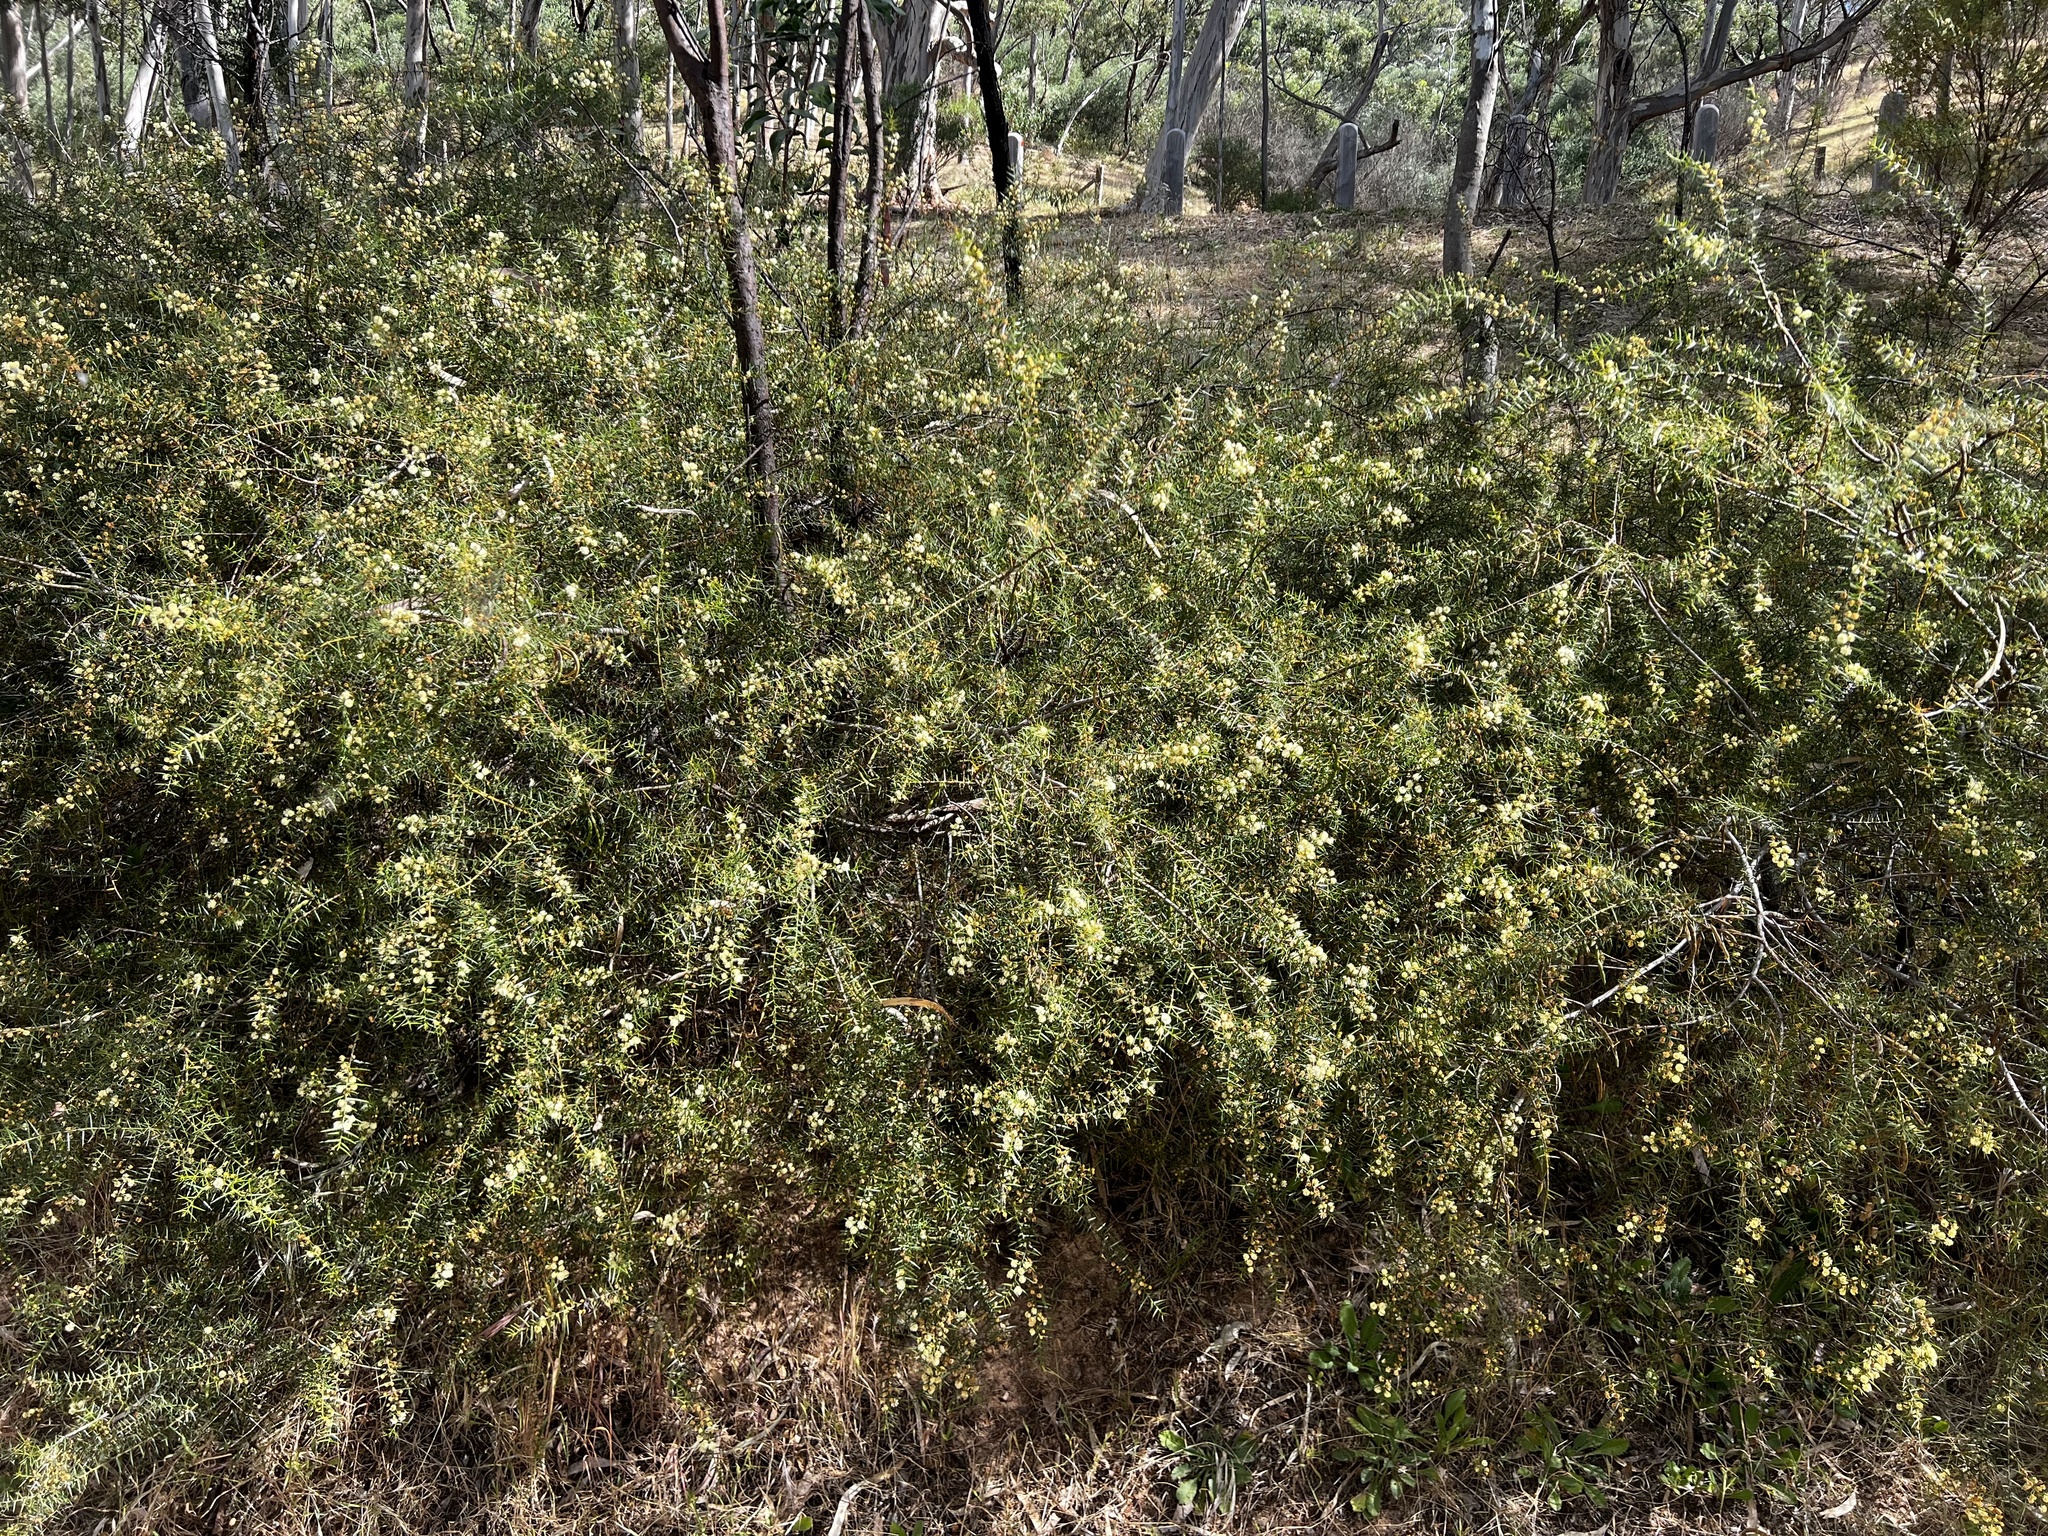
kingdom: Plantae
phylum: Tracheophyta
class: Magnoliopsida
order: Fabales
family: Fabaceae
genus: Acacia
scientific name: Acacia rupicola
